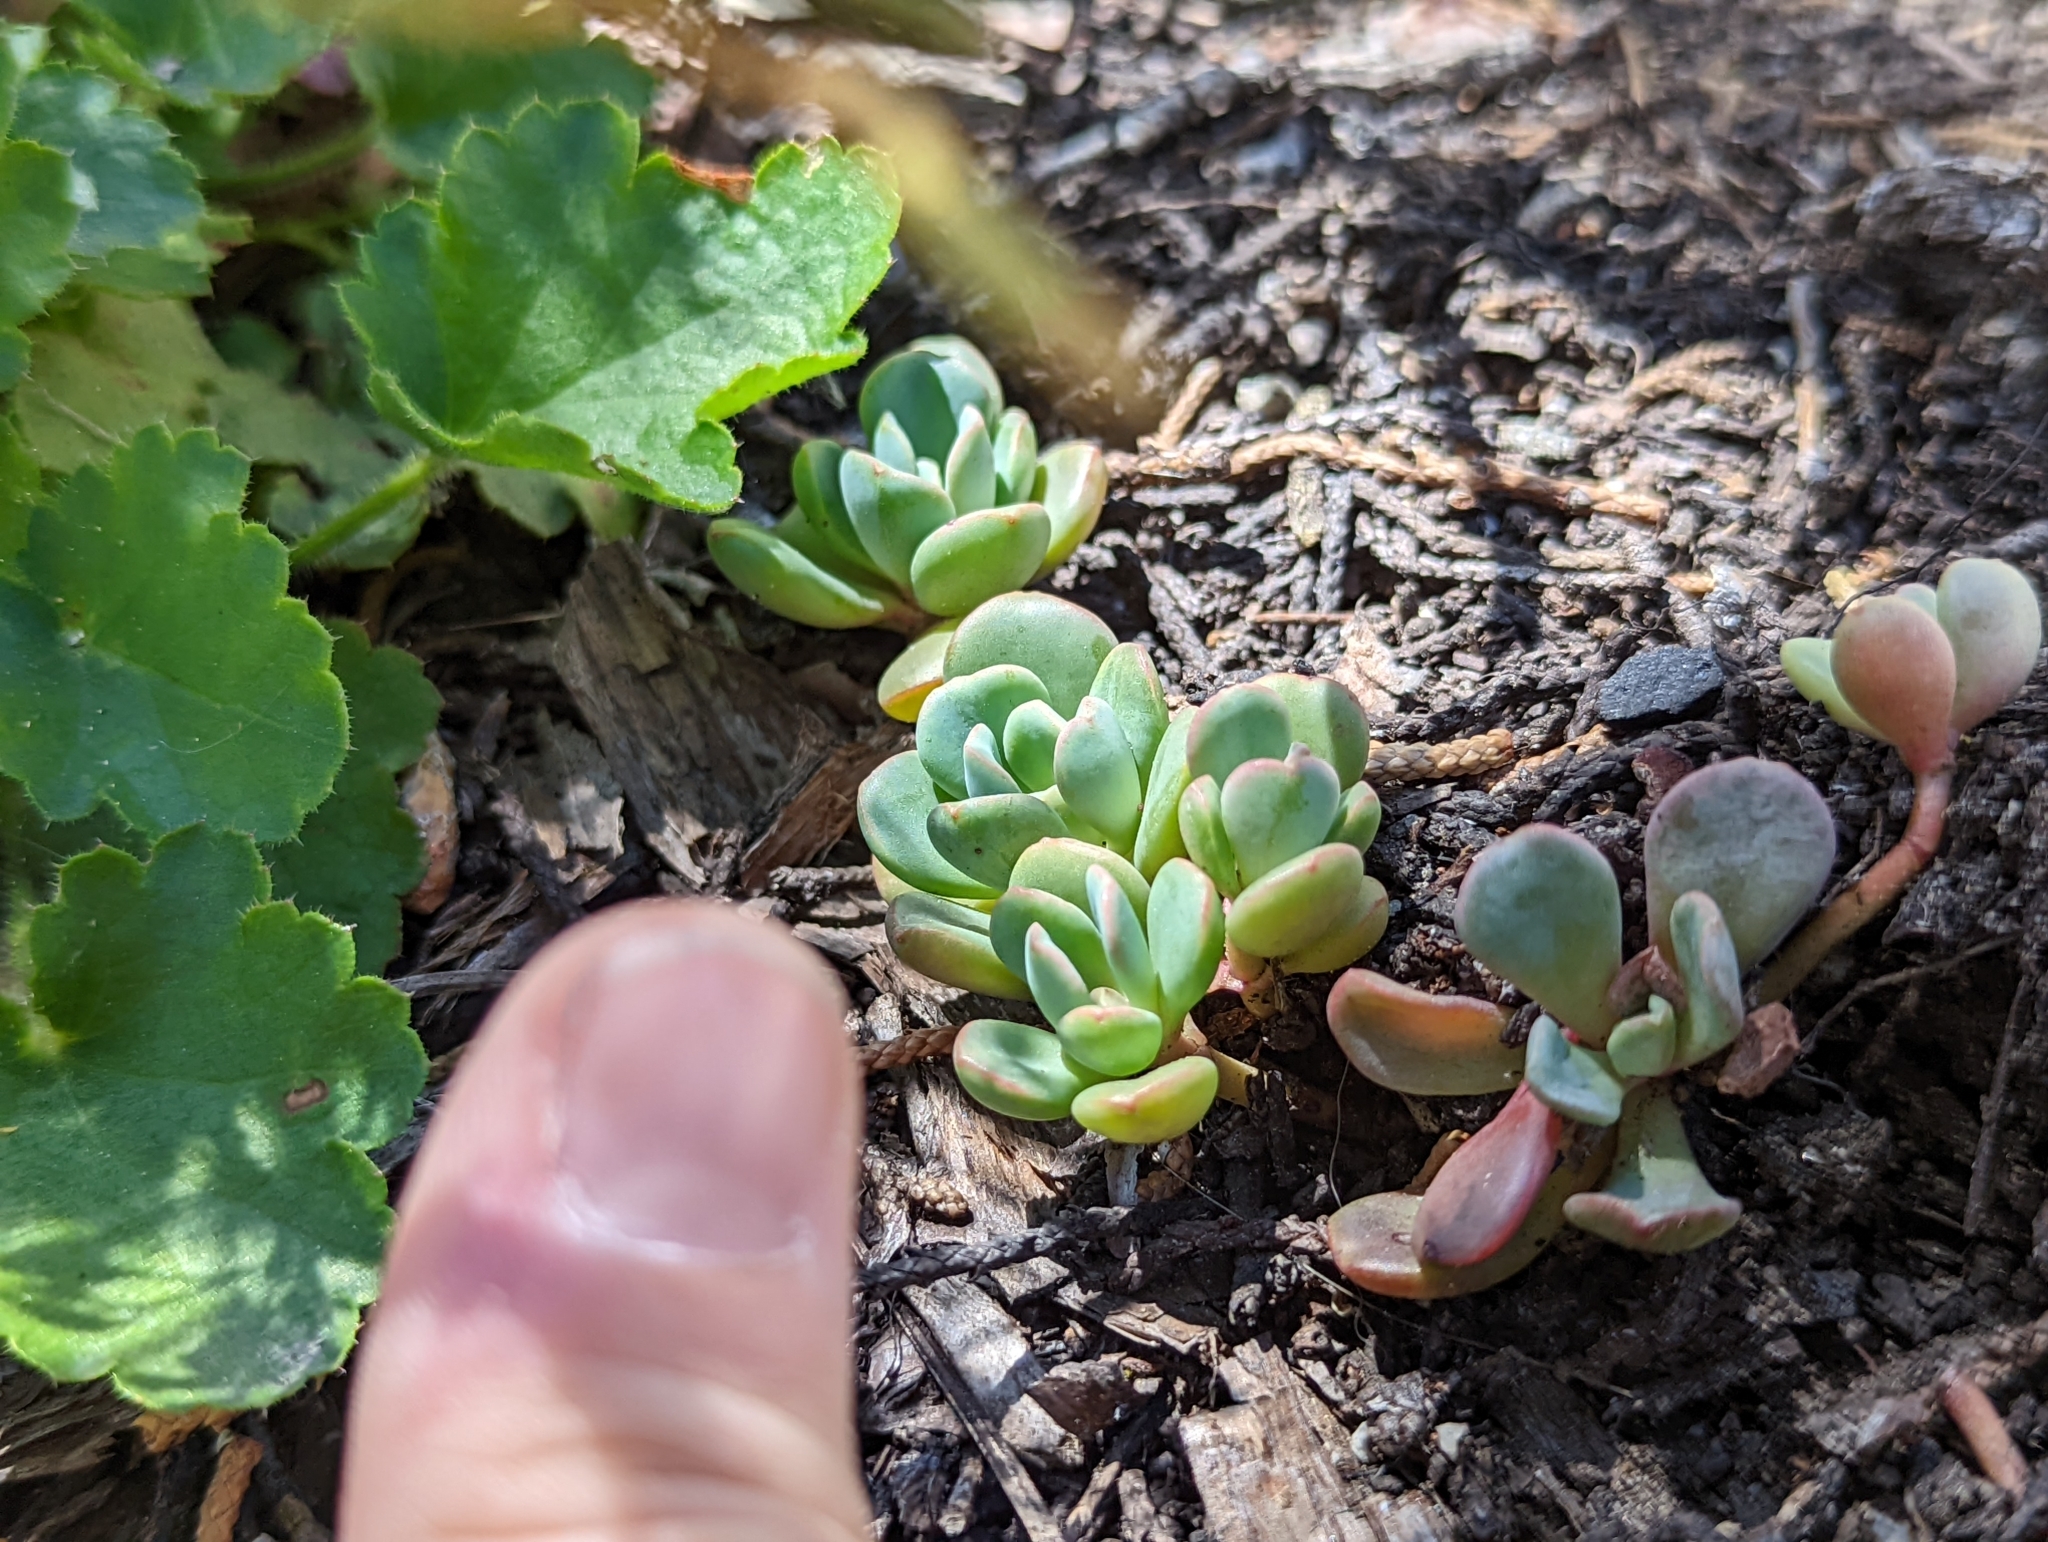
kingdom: Plantae
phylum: Tracheophyta
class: Magnoliopsida
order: Saxifragales
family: Crassulaceae
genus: Sedum
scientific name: Sedum obtusatum
